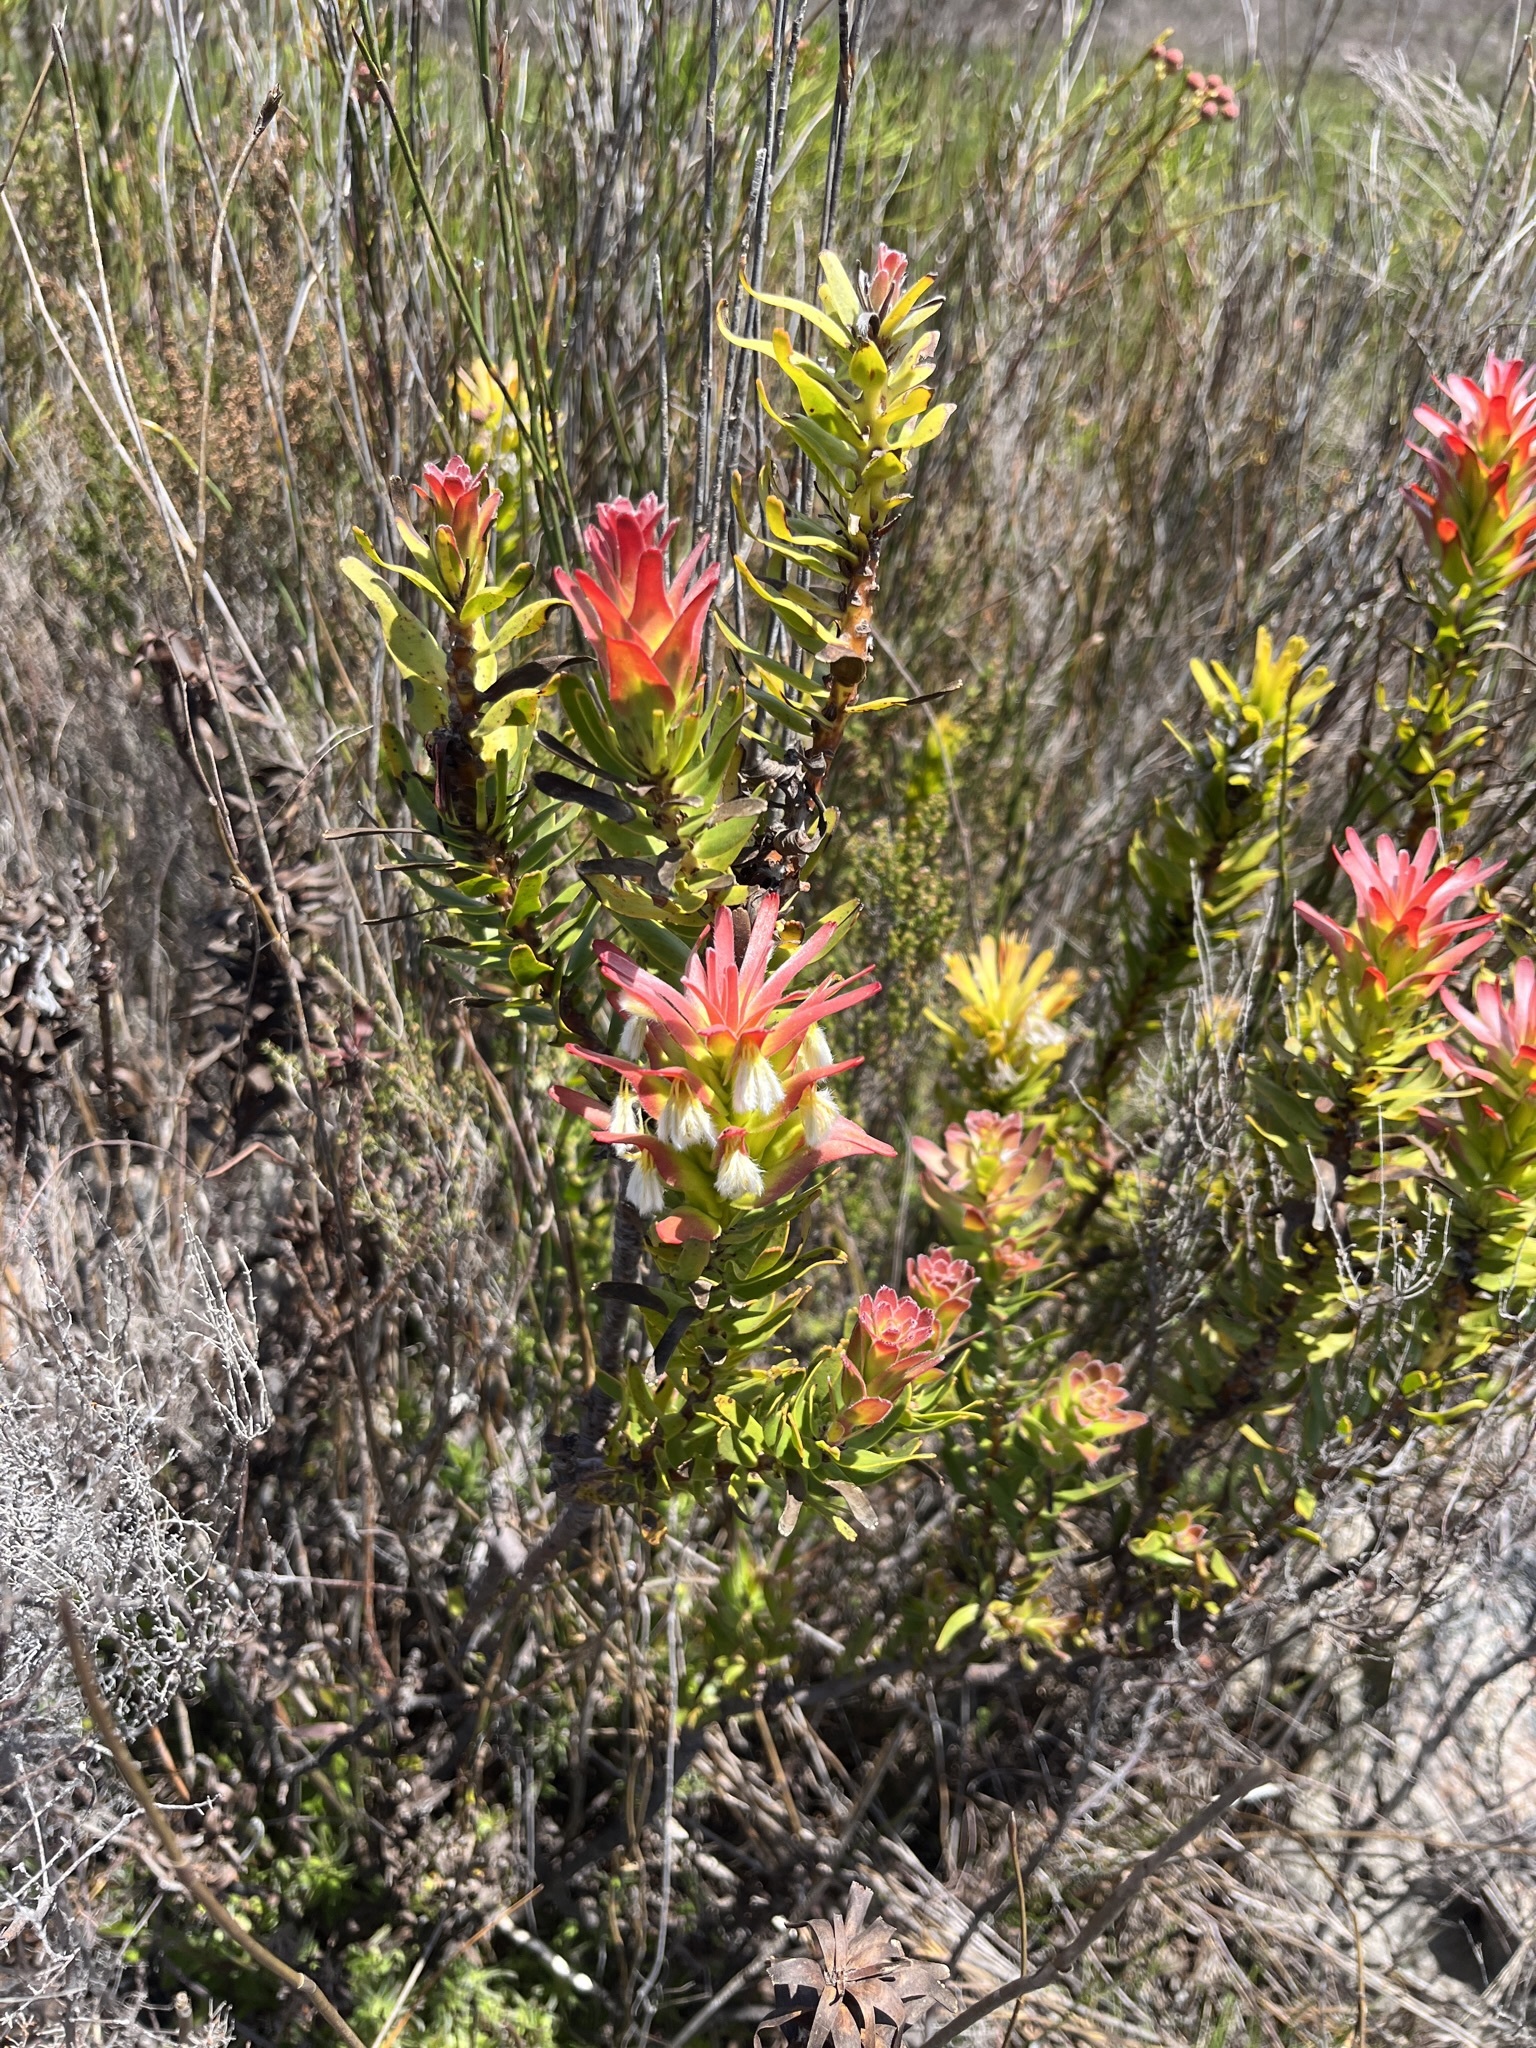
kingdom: Plantae
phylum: Tracheophyta
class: Magnoliopsida
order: Proteales
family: Proteaceae
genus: Mimetes
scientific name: Mimetes cucullatus
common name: Common pagoda
